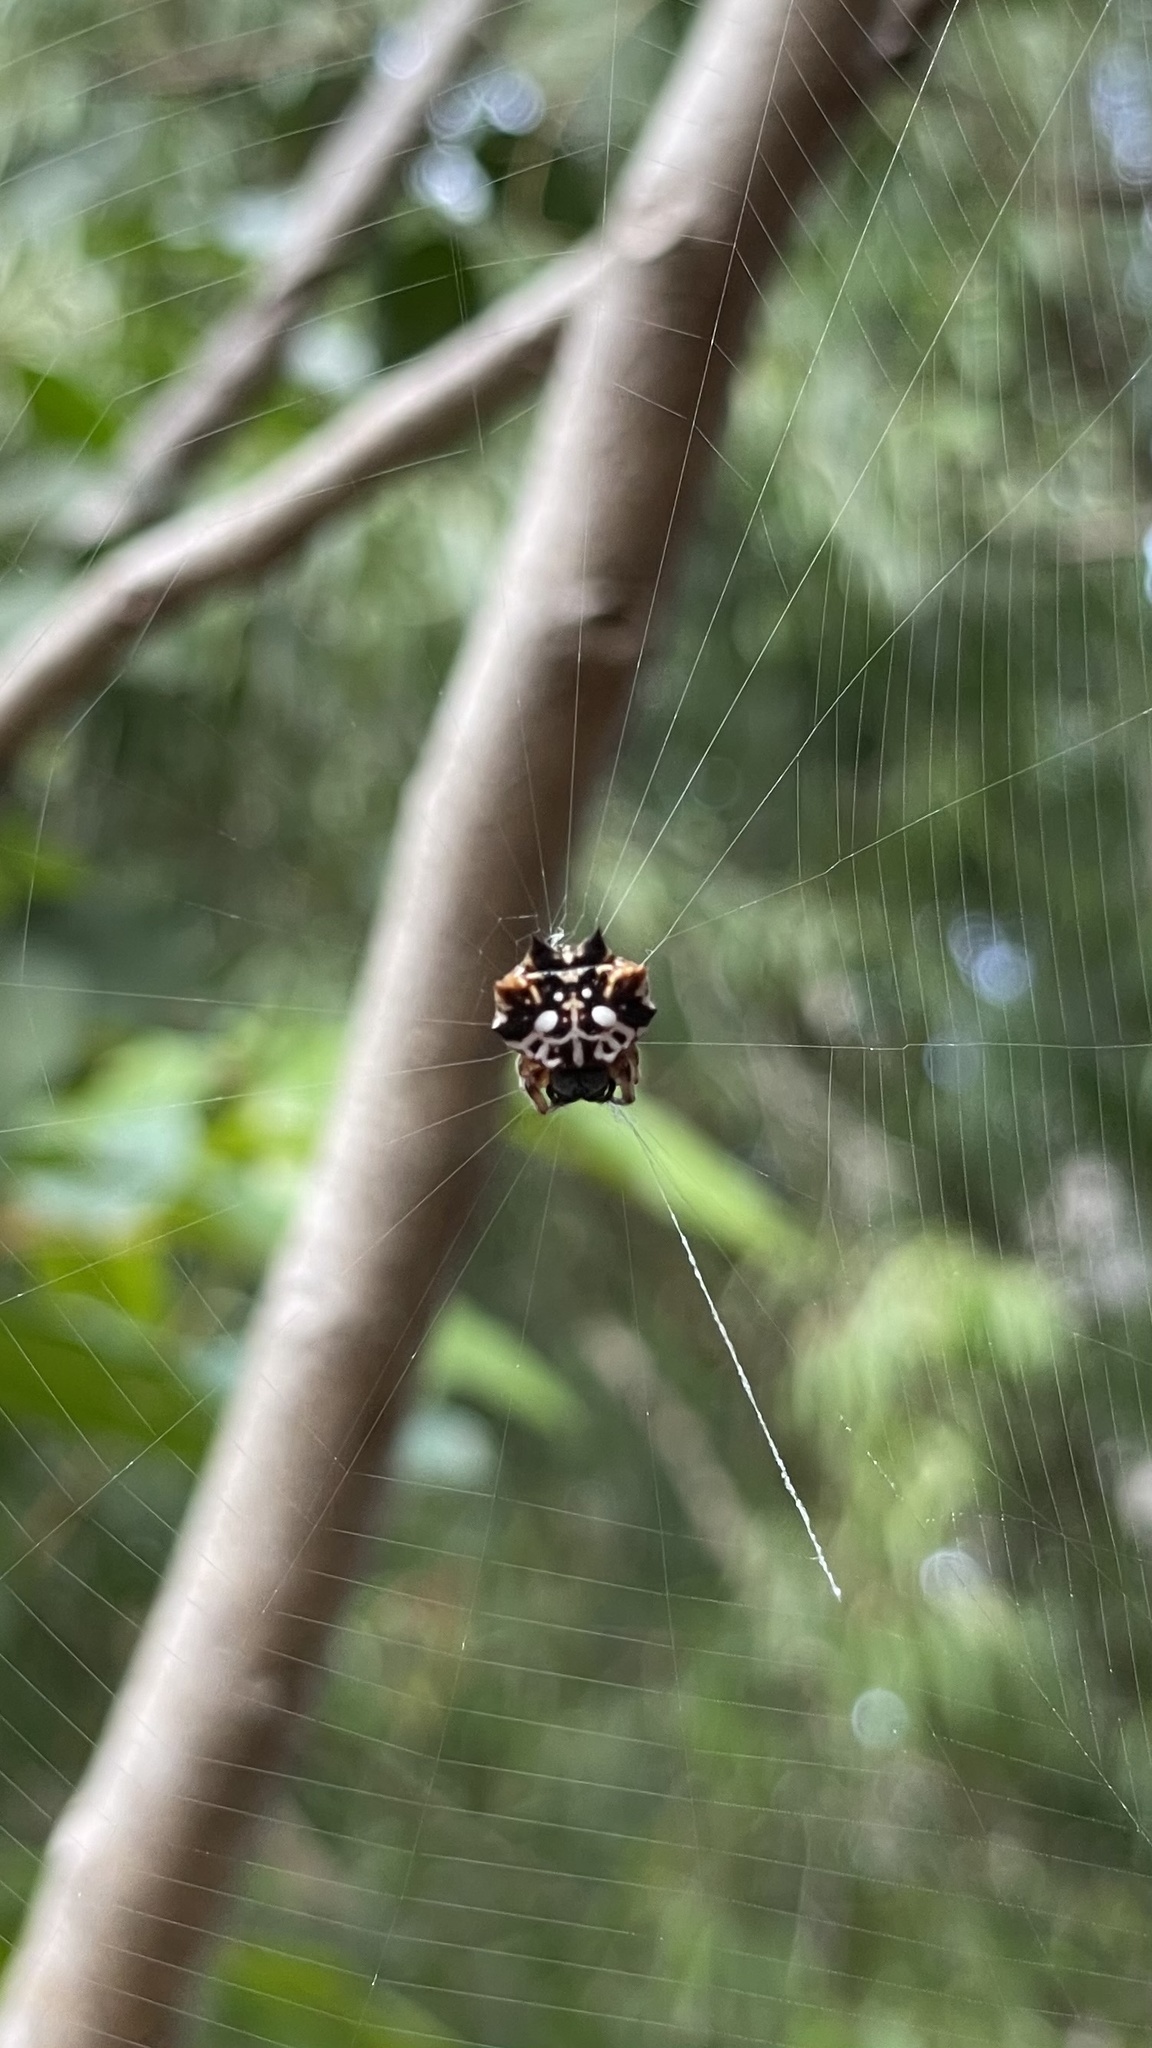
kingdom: Animalia
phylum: Arthropoda
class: Arachnida
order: Araneae
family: Araneidae
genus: Gasteracantha
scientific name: Gasteracantha sacerdotalis
